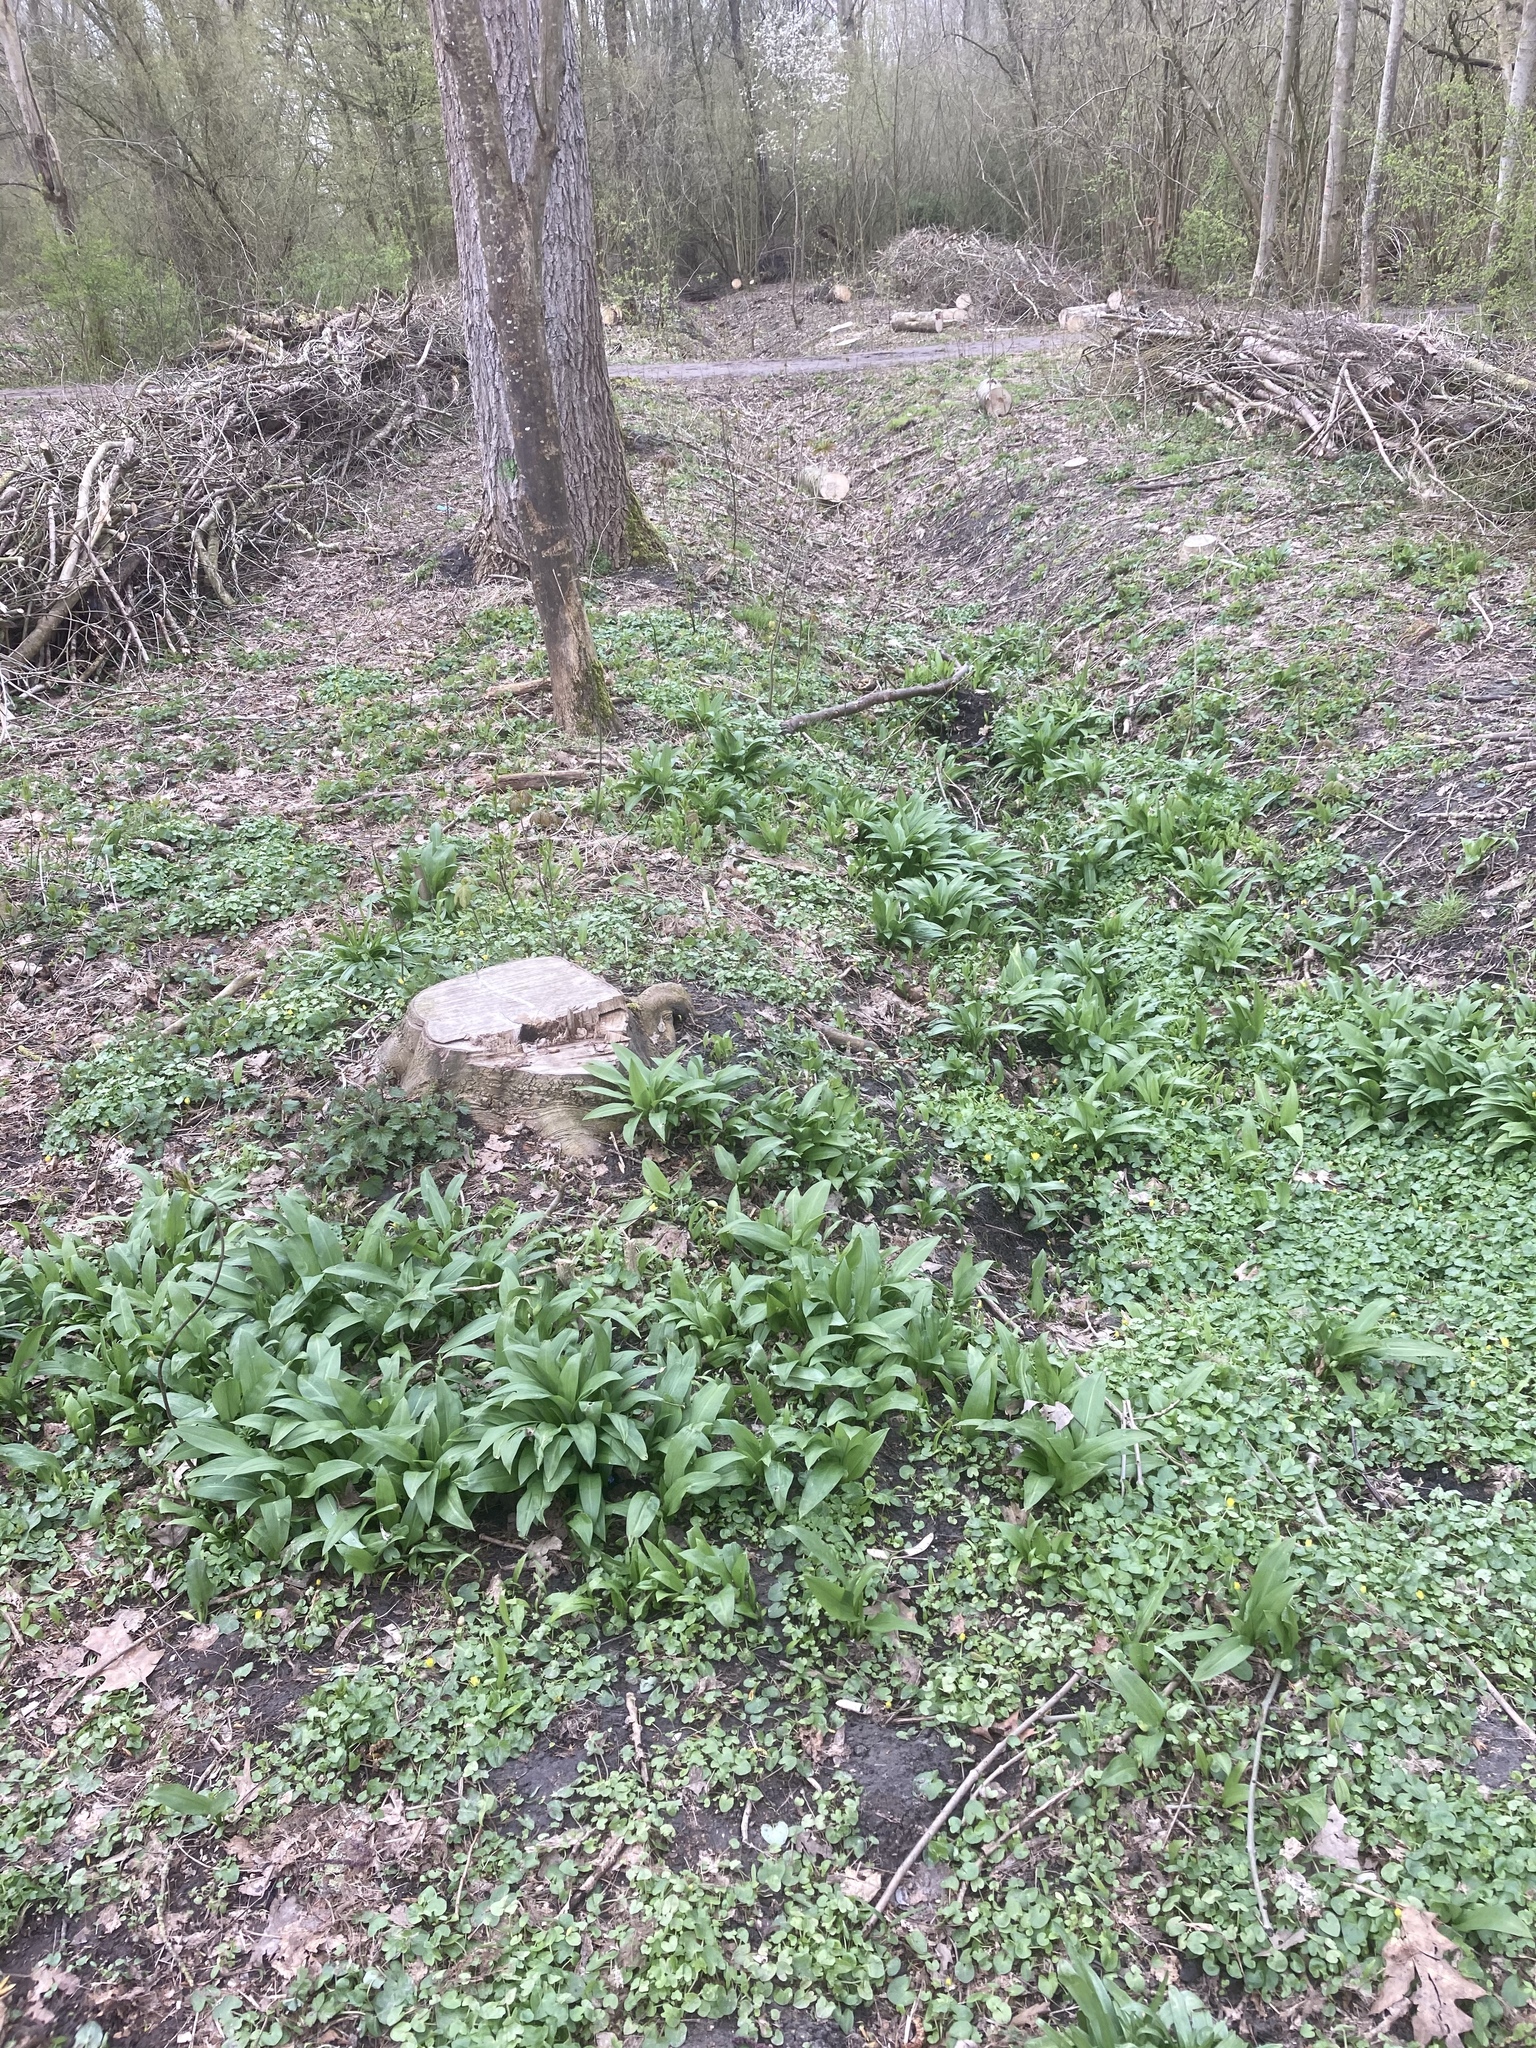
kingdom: Plantae
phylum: Tracheophyta
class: Liliopsida
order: Asparagales
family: Amaryllidaceae
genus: Allium
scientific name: Allium ursinum
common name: Ramsons
